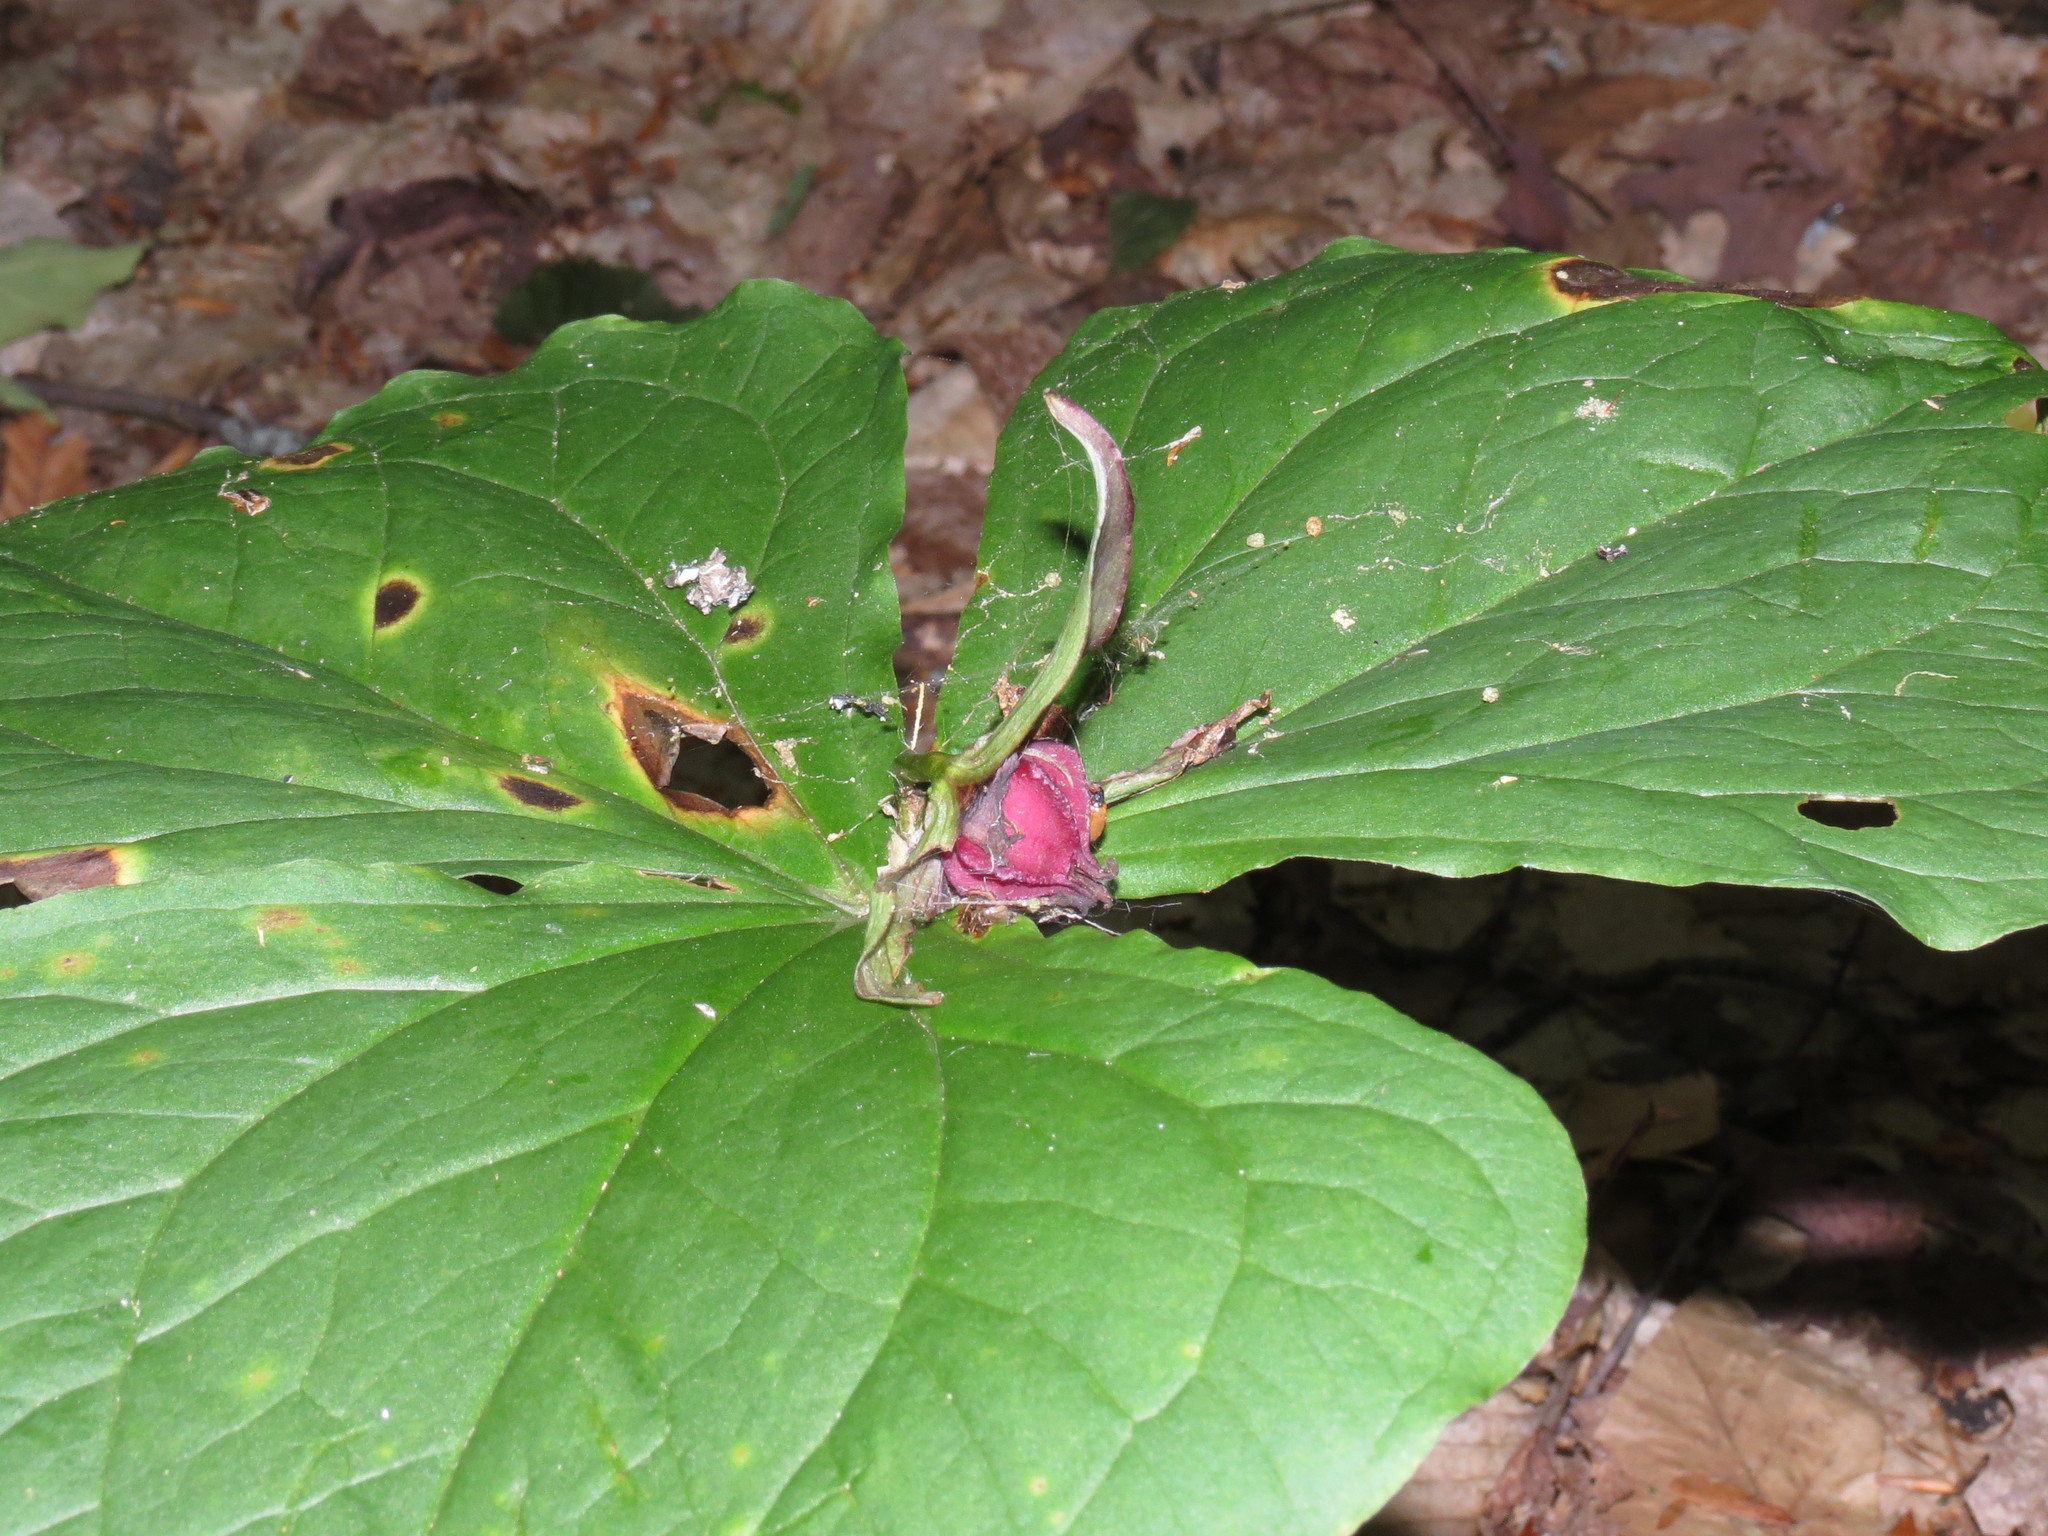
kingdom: Plantae
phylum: Tracheophyta
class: Liliopsida
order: Liliales
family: Melanthiaceae
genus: Trillium
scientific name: Trillium erectum
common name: Purple trillium
